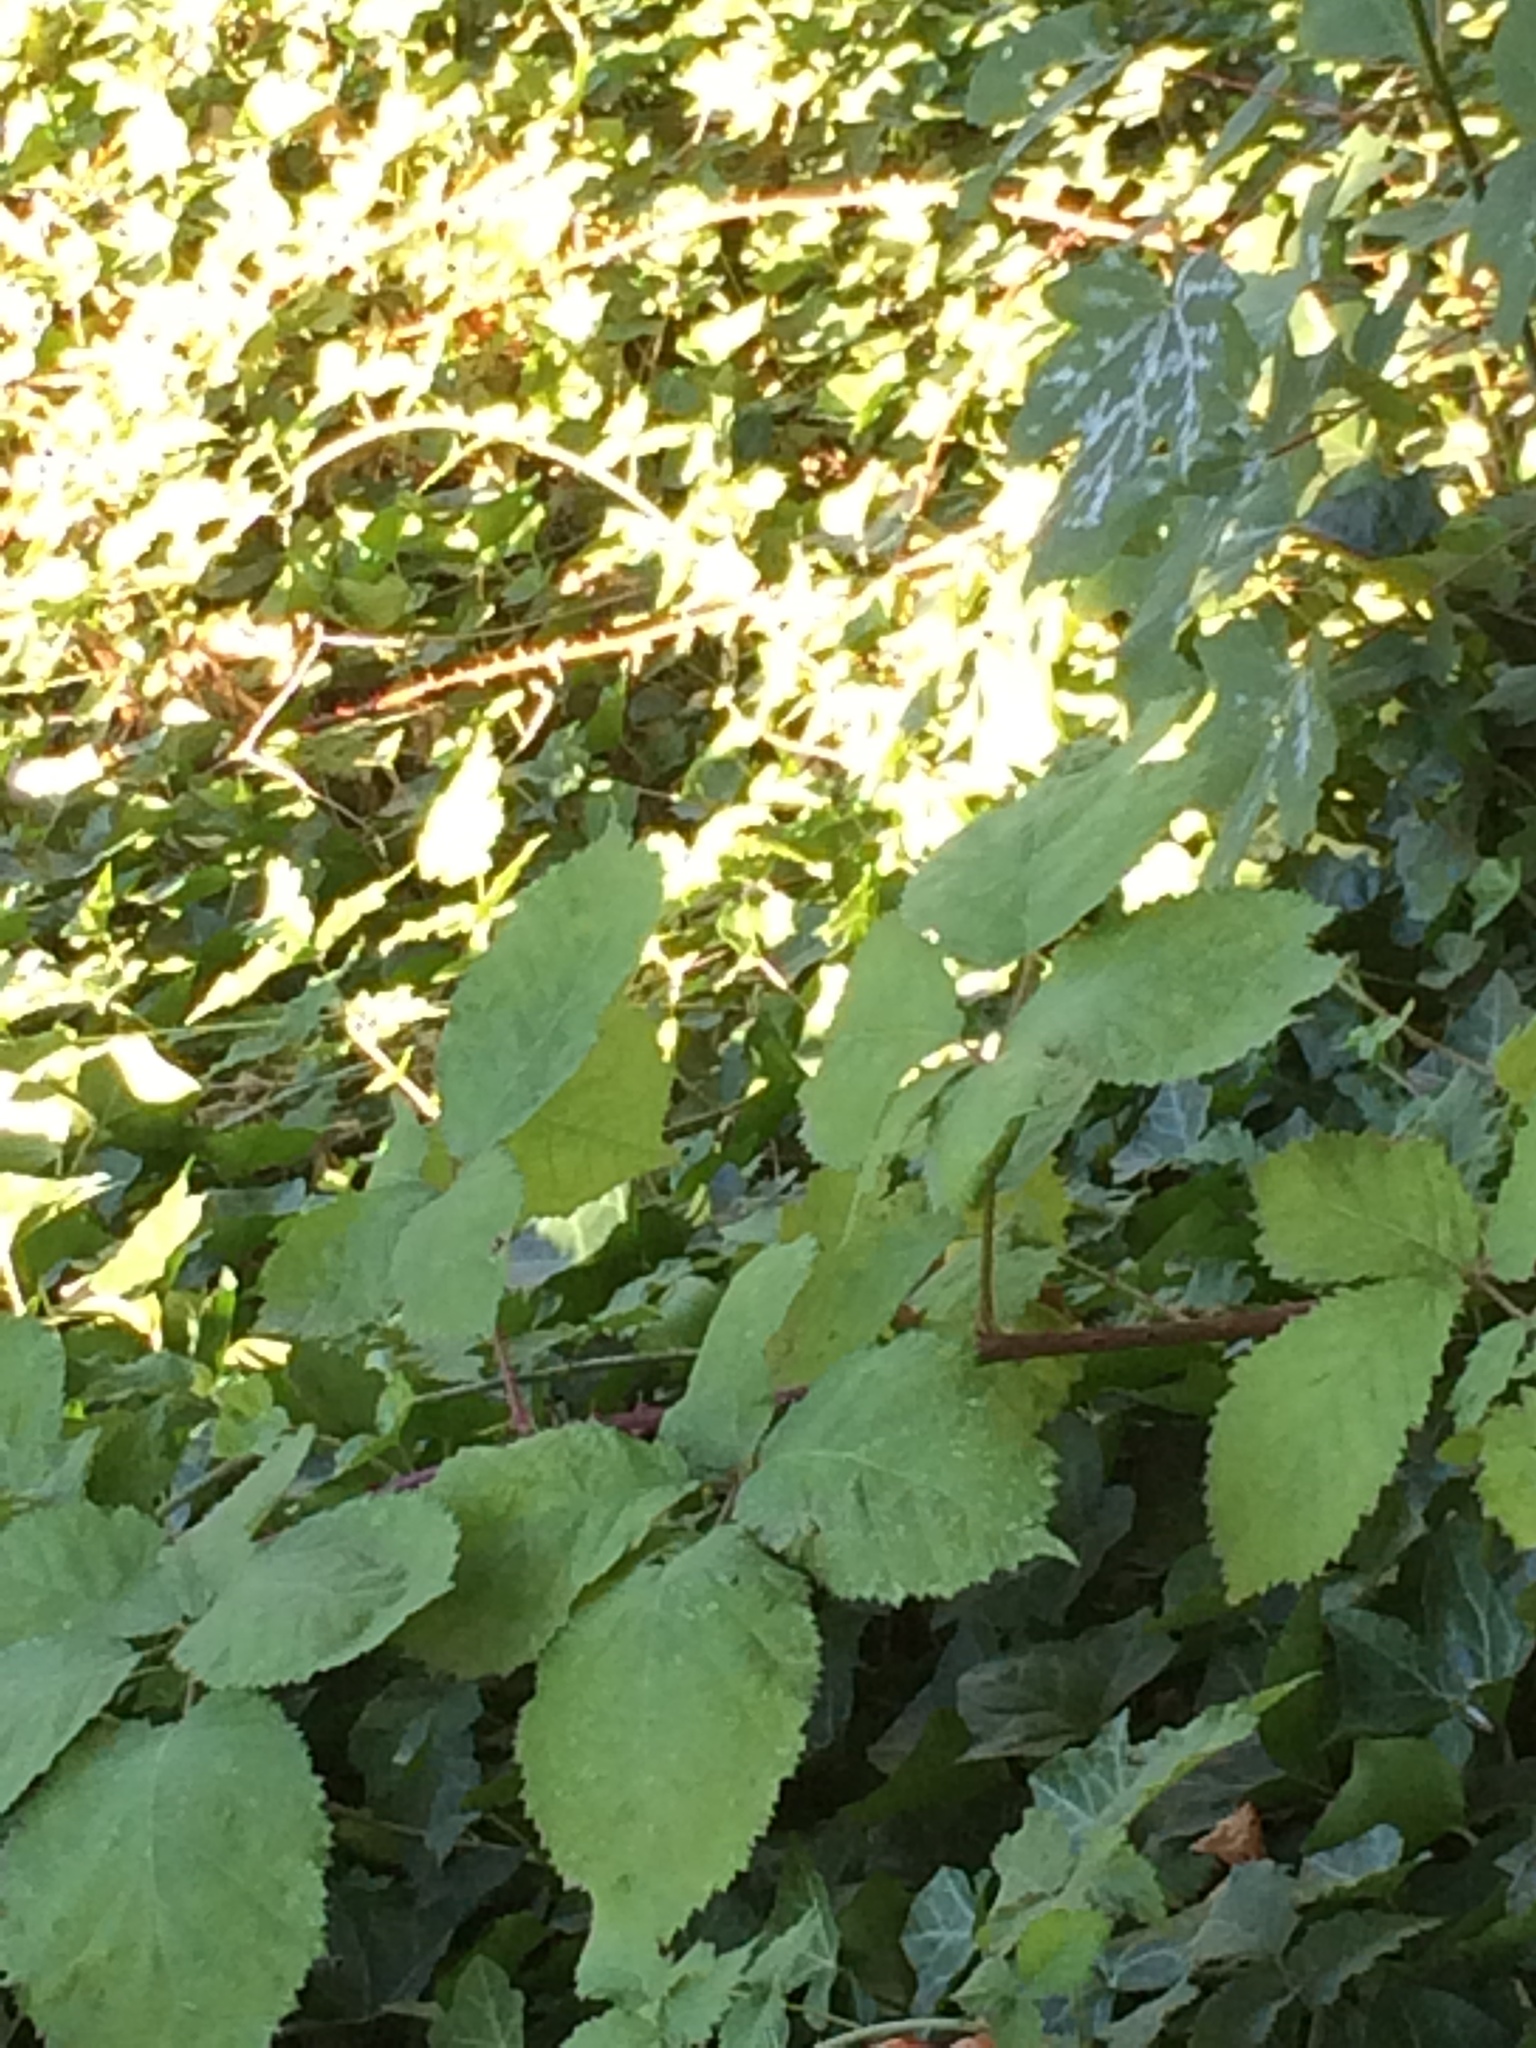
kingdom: Plantae
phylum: Tracheophyta
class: Magnoliopsida
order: Rosales
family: Rosaceae
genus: Rubus
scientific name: Rubus armeniacus
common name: Himalayan blackberry
